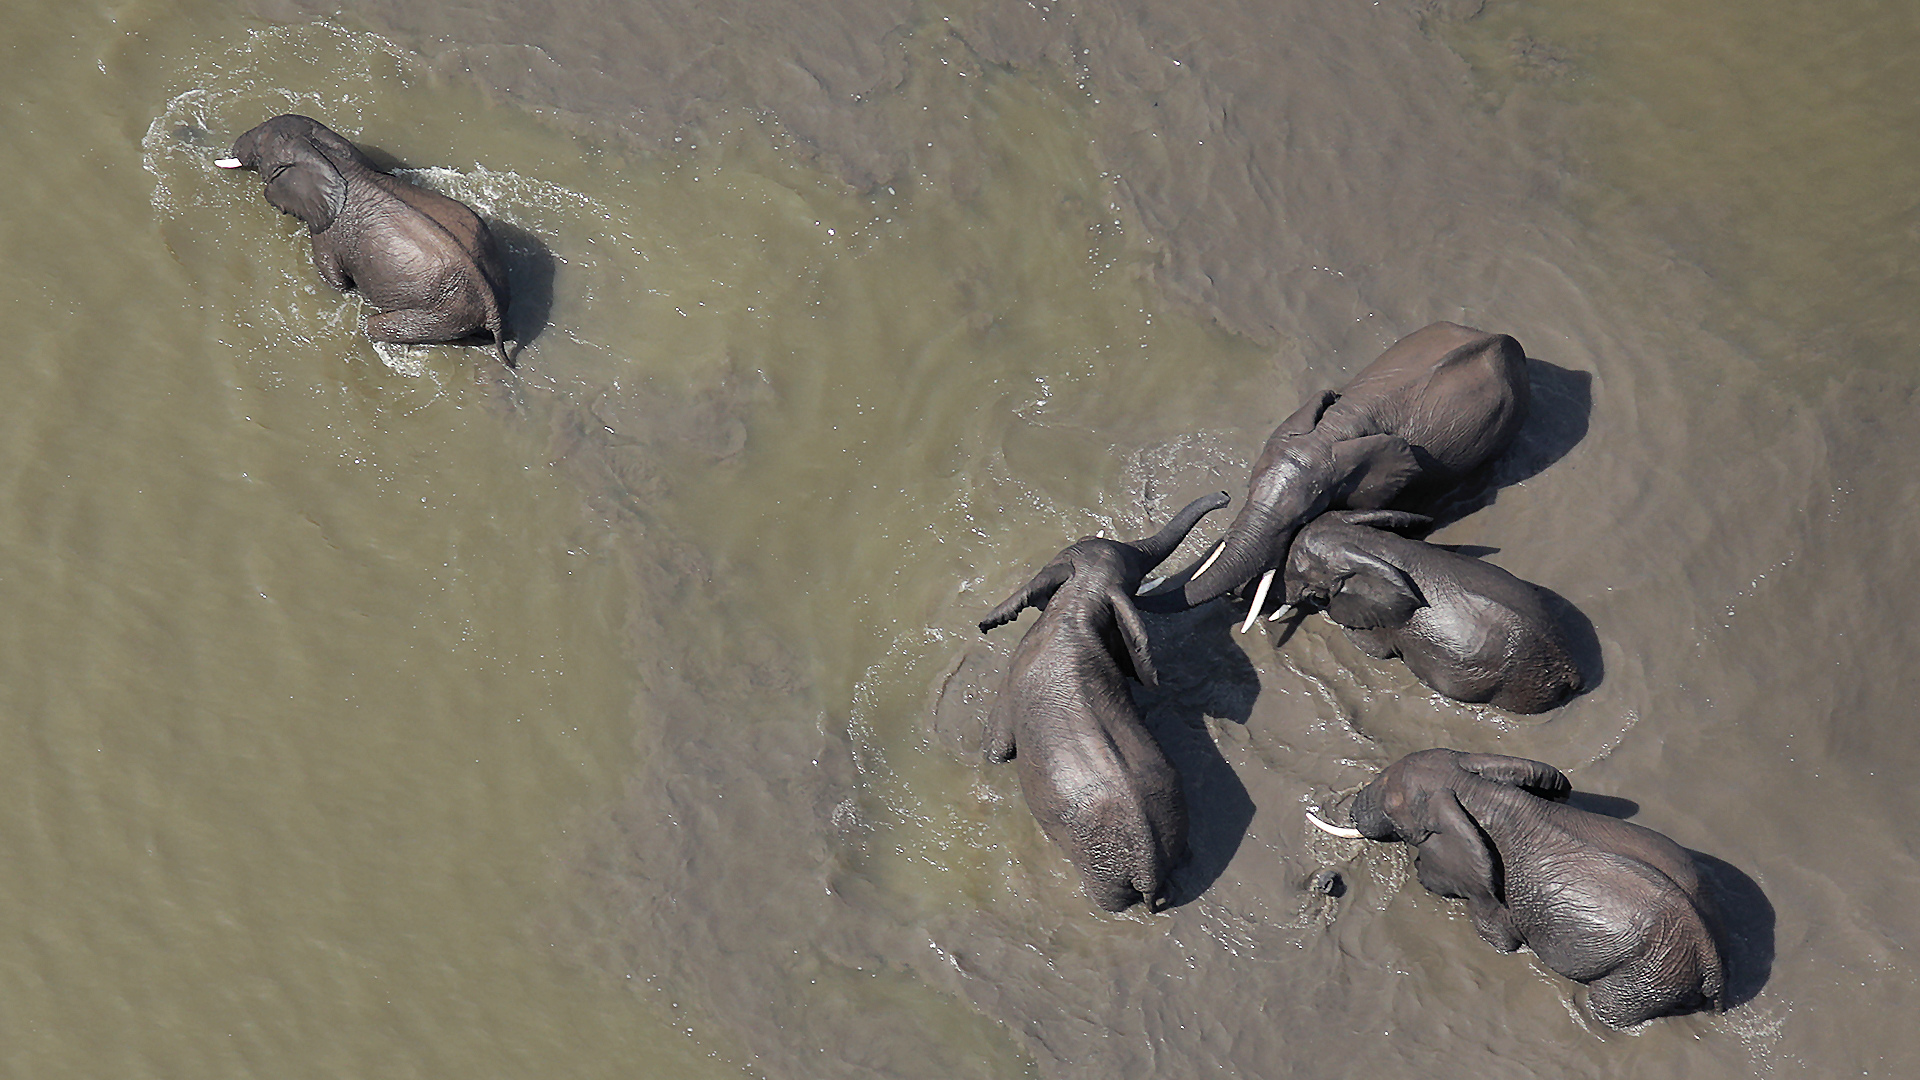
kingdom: Animalia
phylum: Chordata
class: Mammalia
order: Proboscidea
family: Elephantidae
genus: Loxodonta
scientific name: Loxodonta africana
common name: African elephant
